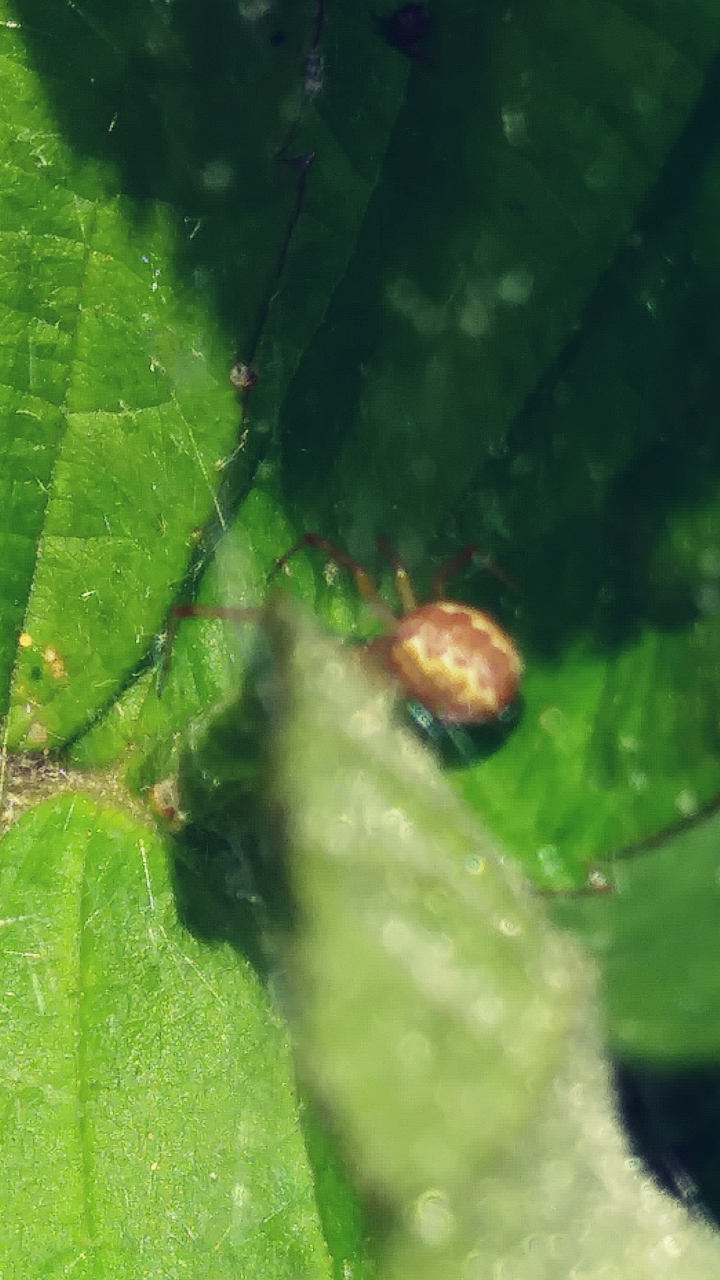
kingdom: Animalia
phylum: Arthropoda
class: Arachnida
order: Araneae
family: Theridiidae
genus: Anelosimus
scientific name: Anelosimus studiosus
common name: Cobweb spiders
